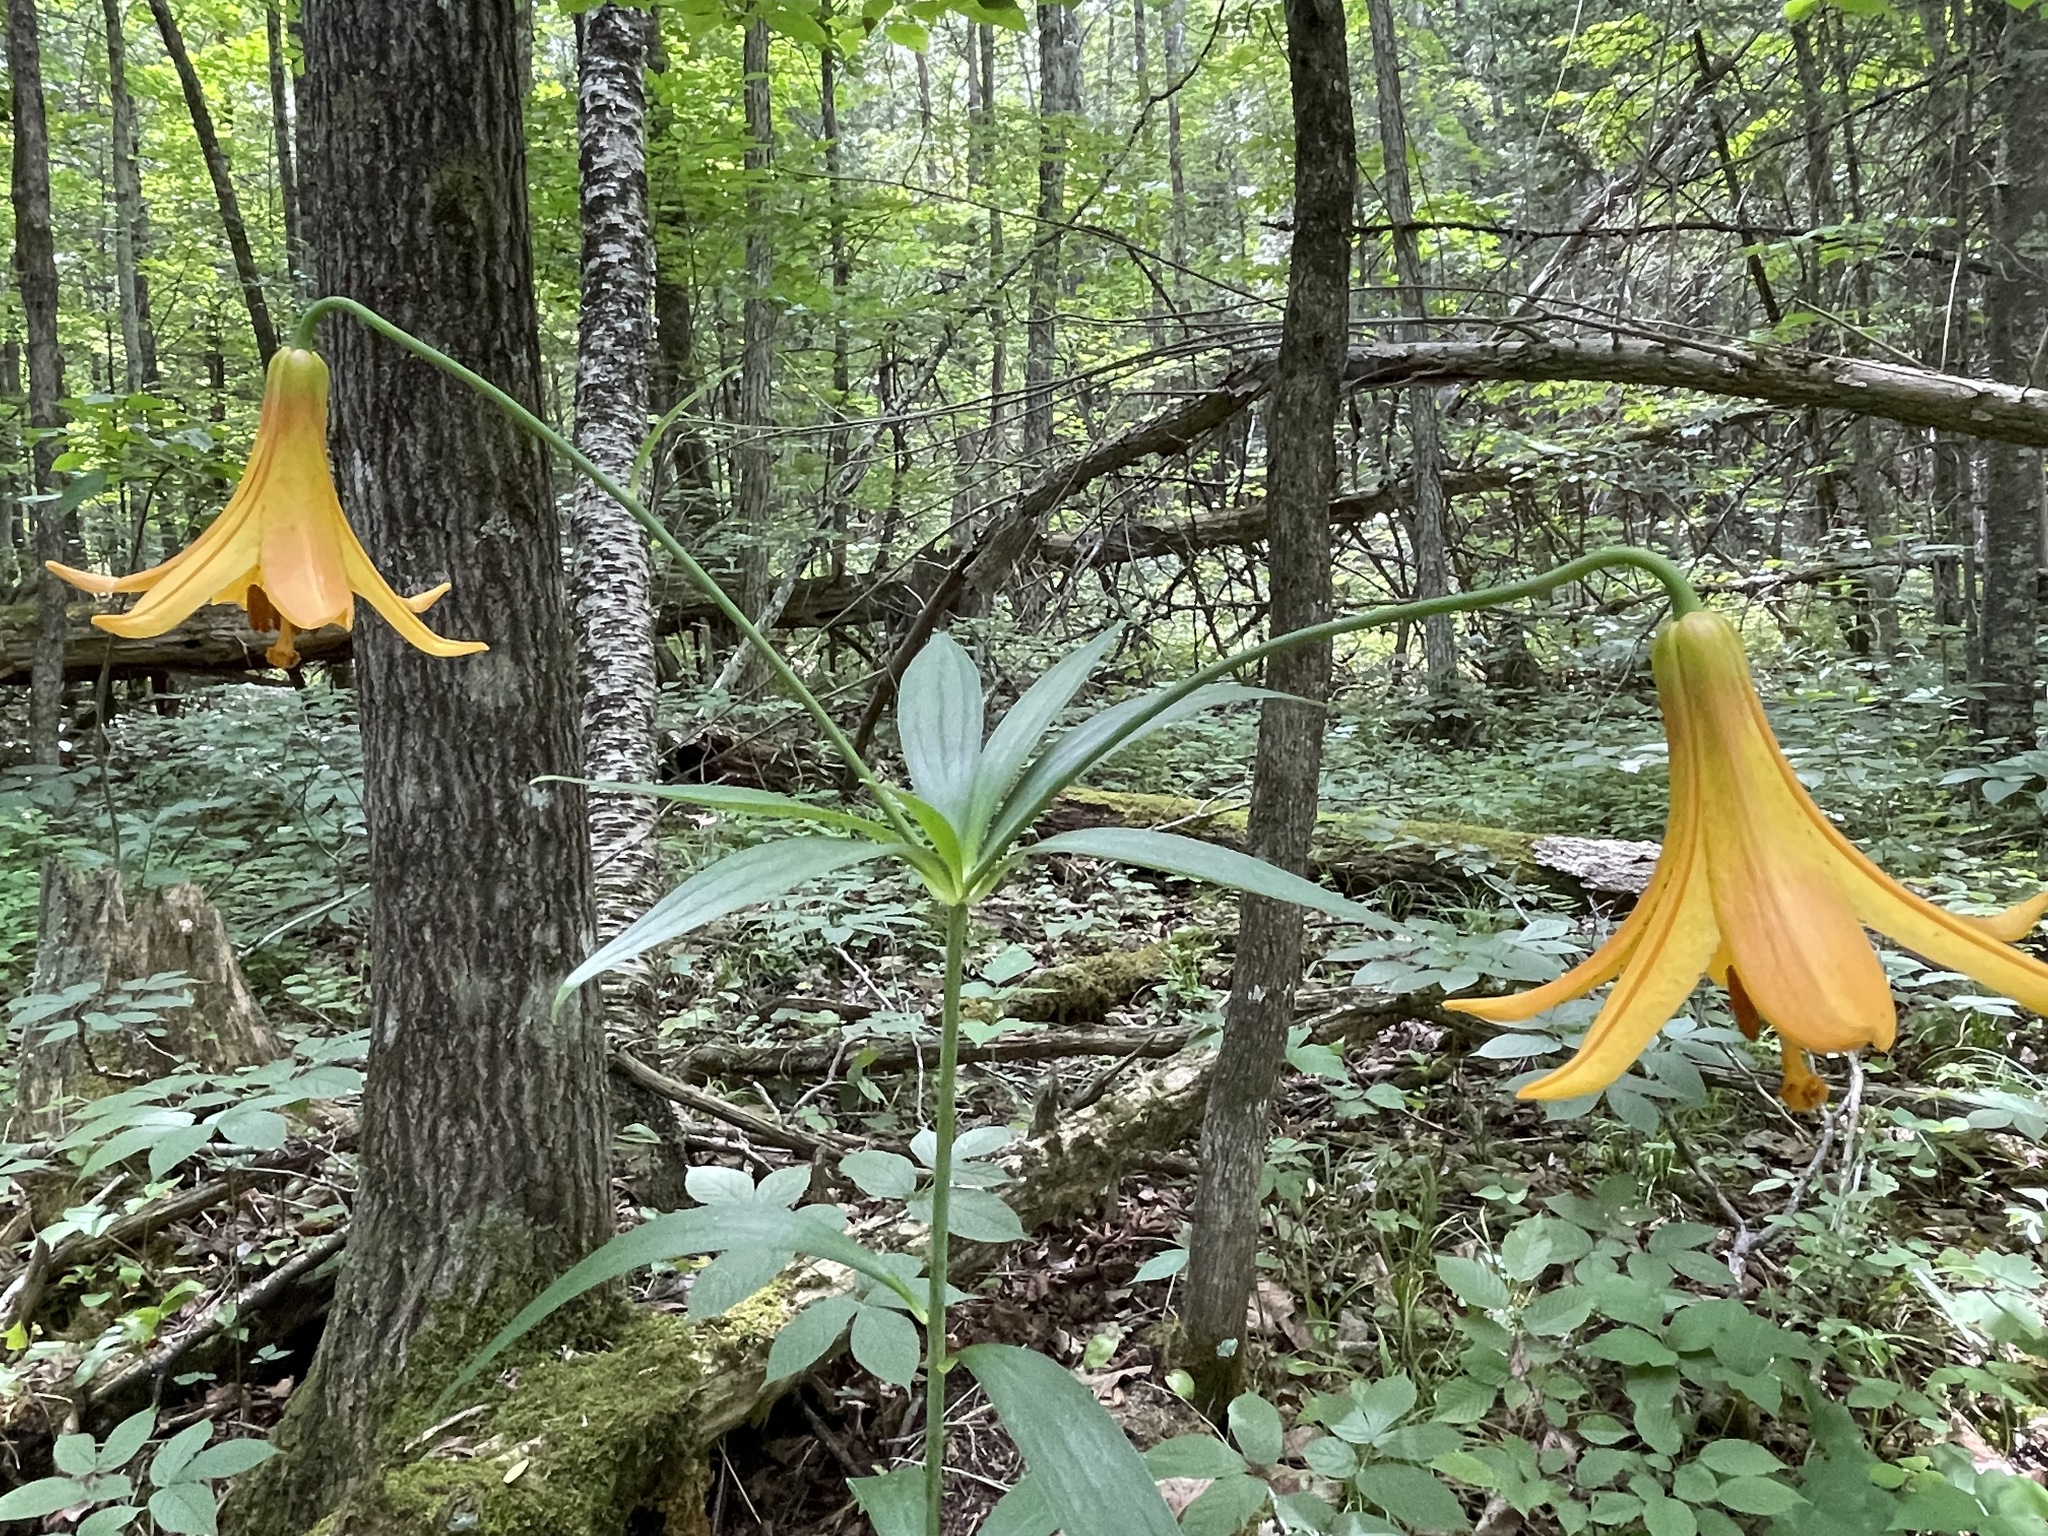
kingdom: Plantae
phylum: Tracheophyta
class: Liliopsida
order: Liliales
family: Liliaceae
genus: Lilium
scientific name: Lilium canadense
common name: Canada lily
